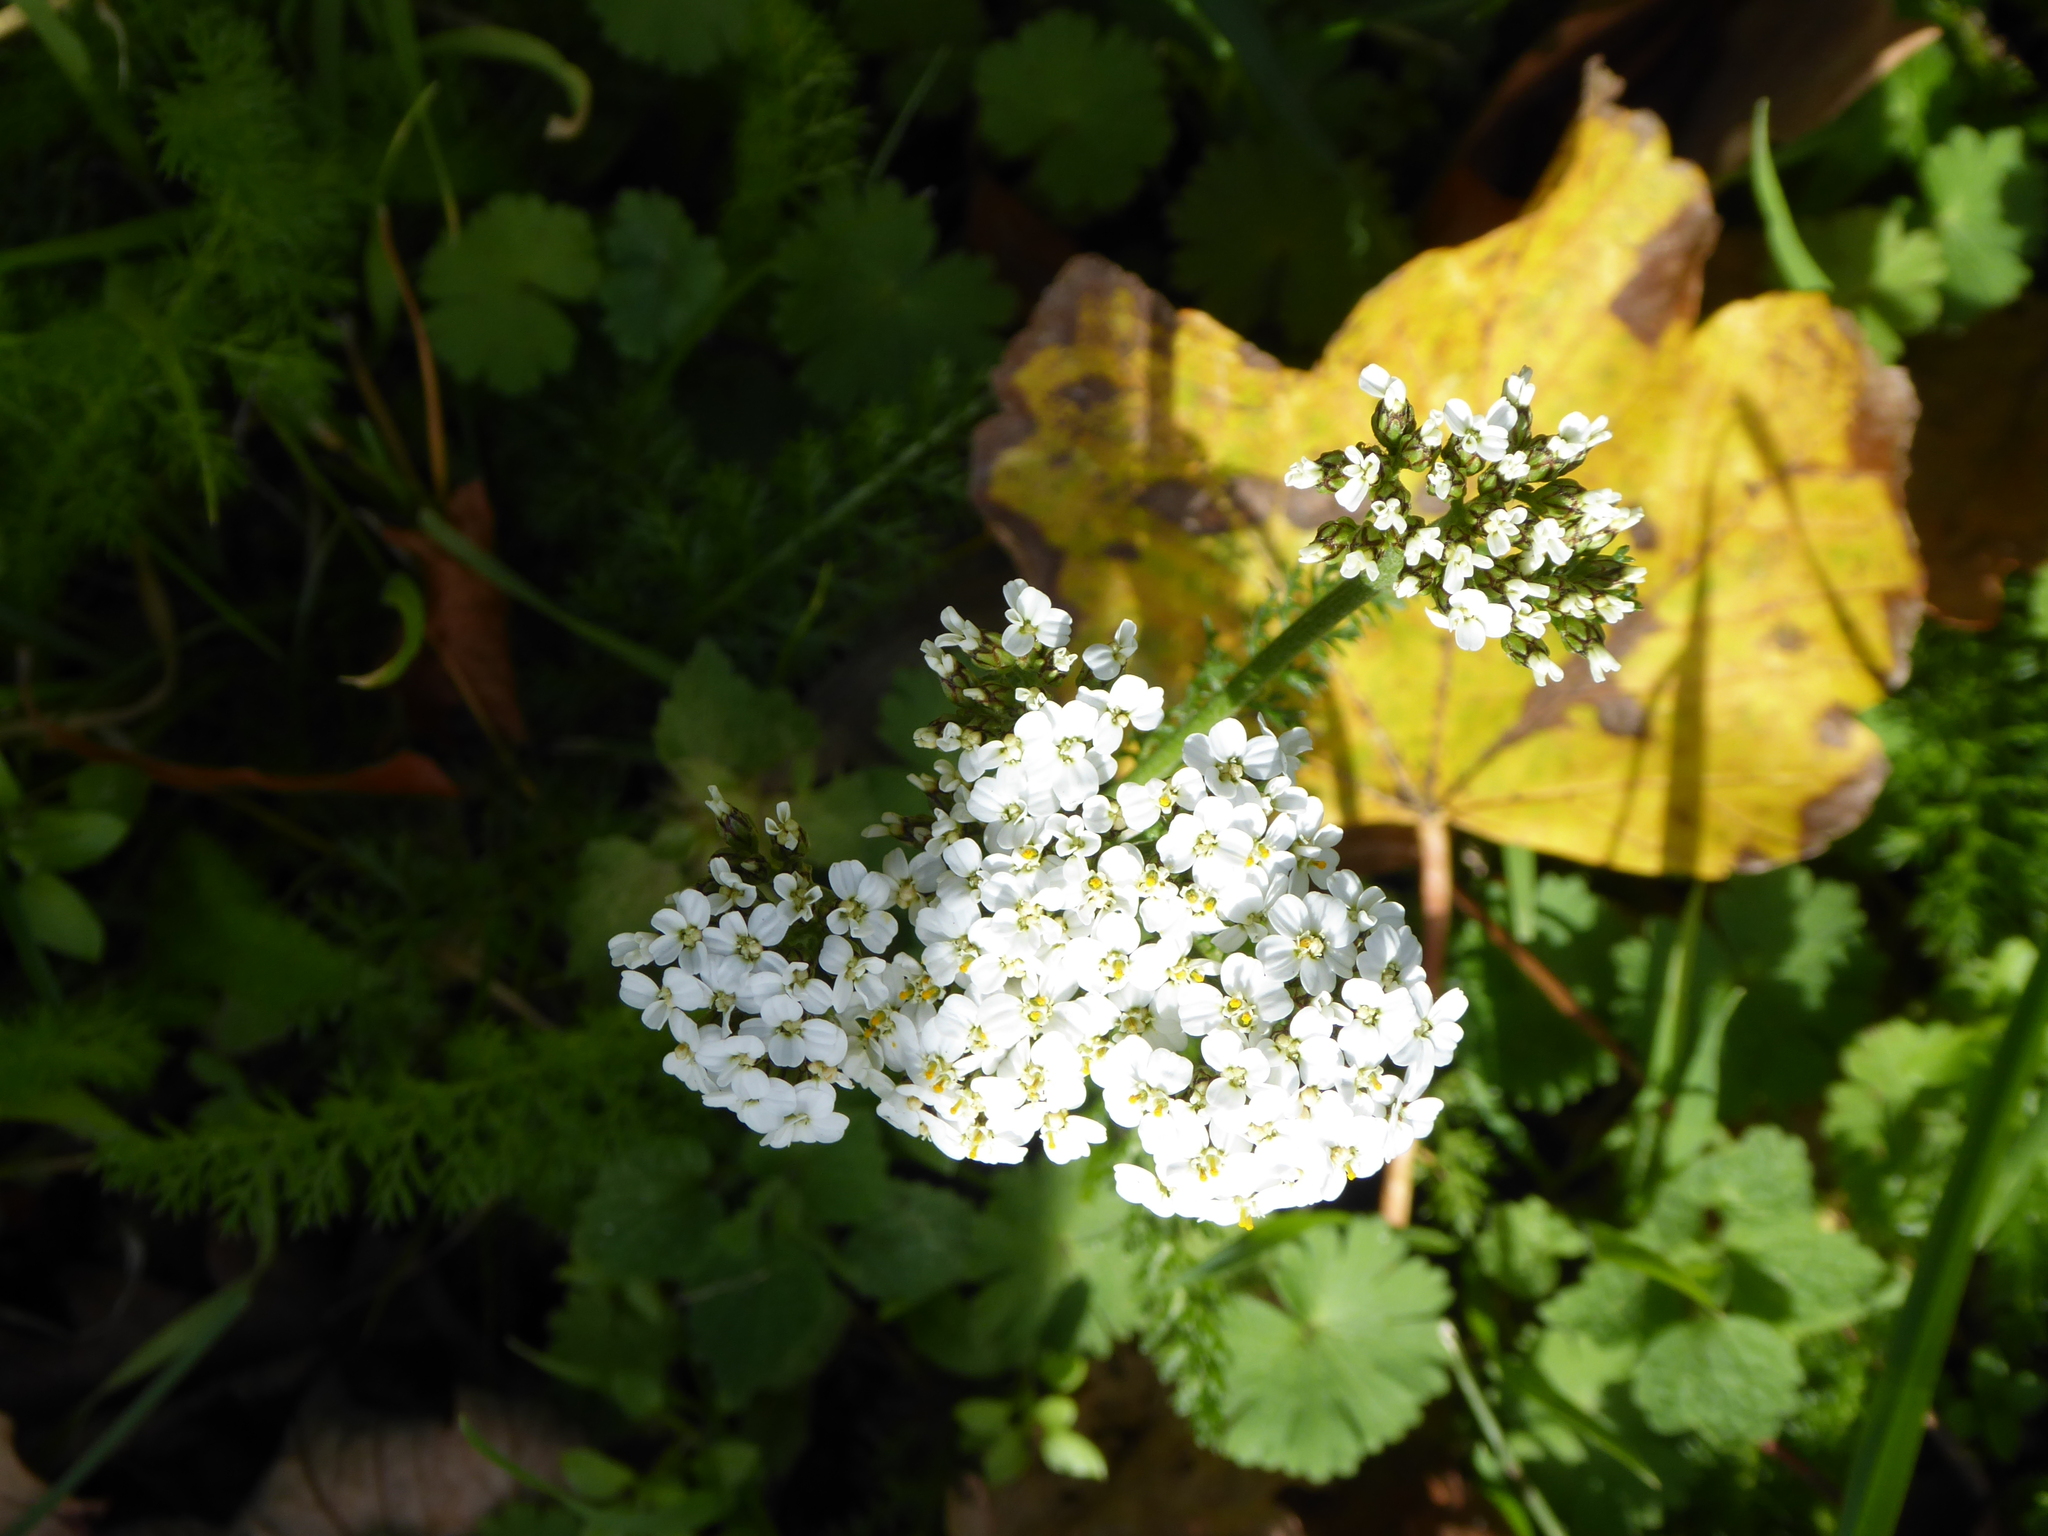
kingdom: Plantae
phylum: Tracheophyta
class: Magnoliopsida
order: Asterales
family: Asteraceae
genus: Achillea
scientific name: Achillea millefolium
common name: Yarrow
